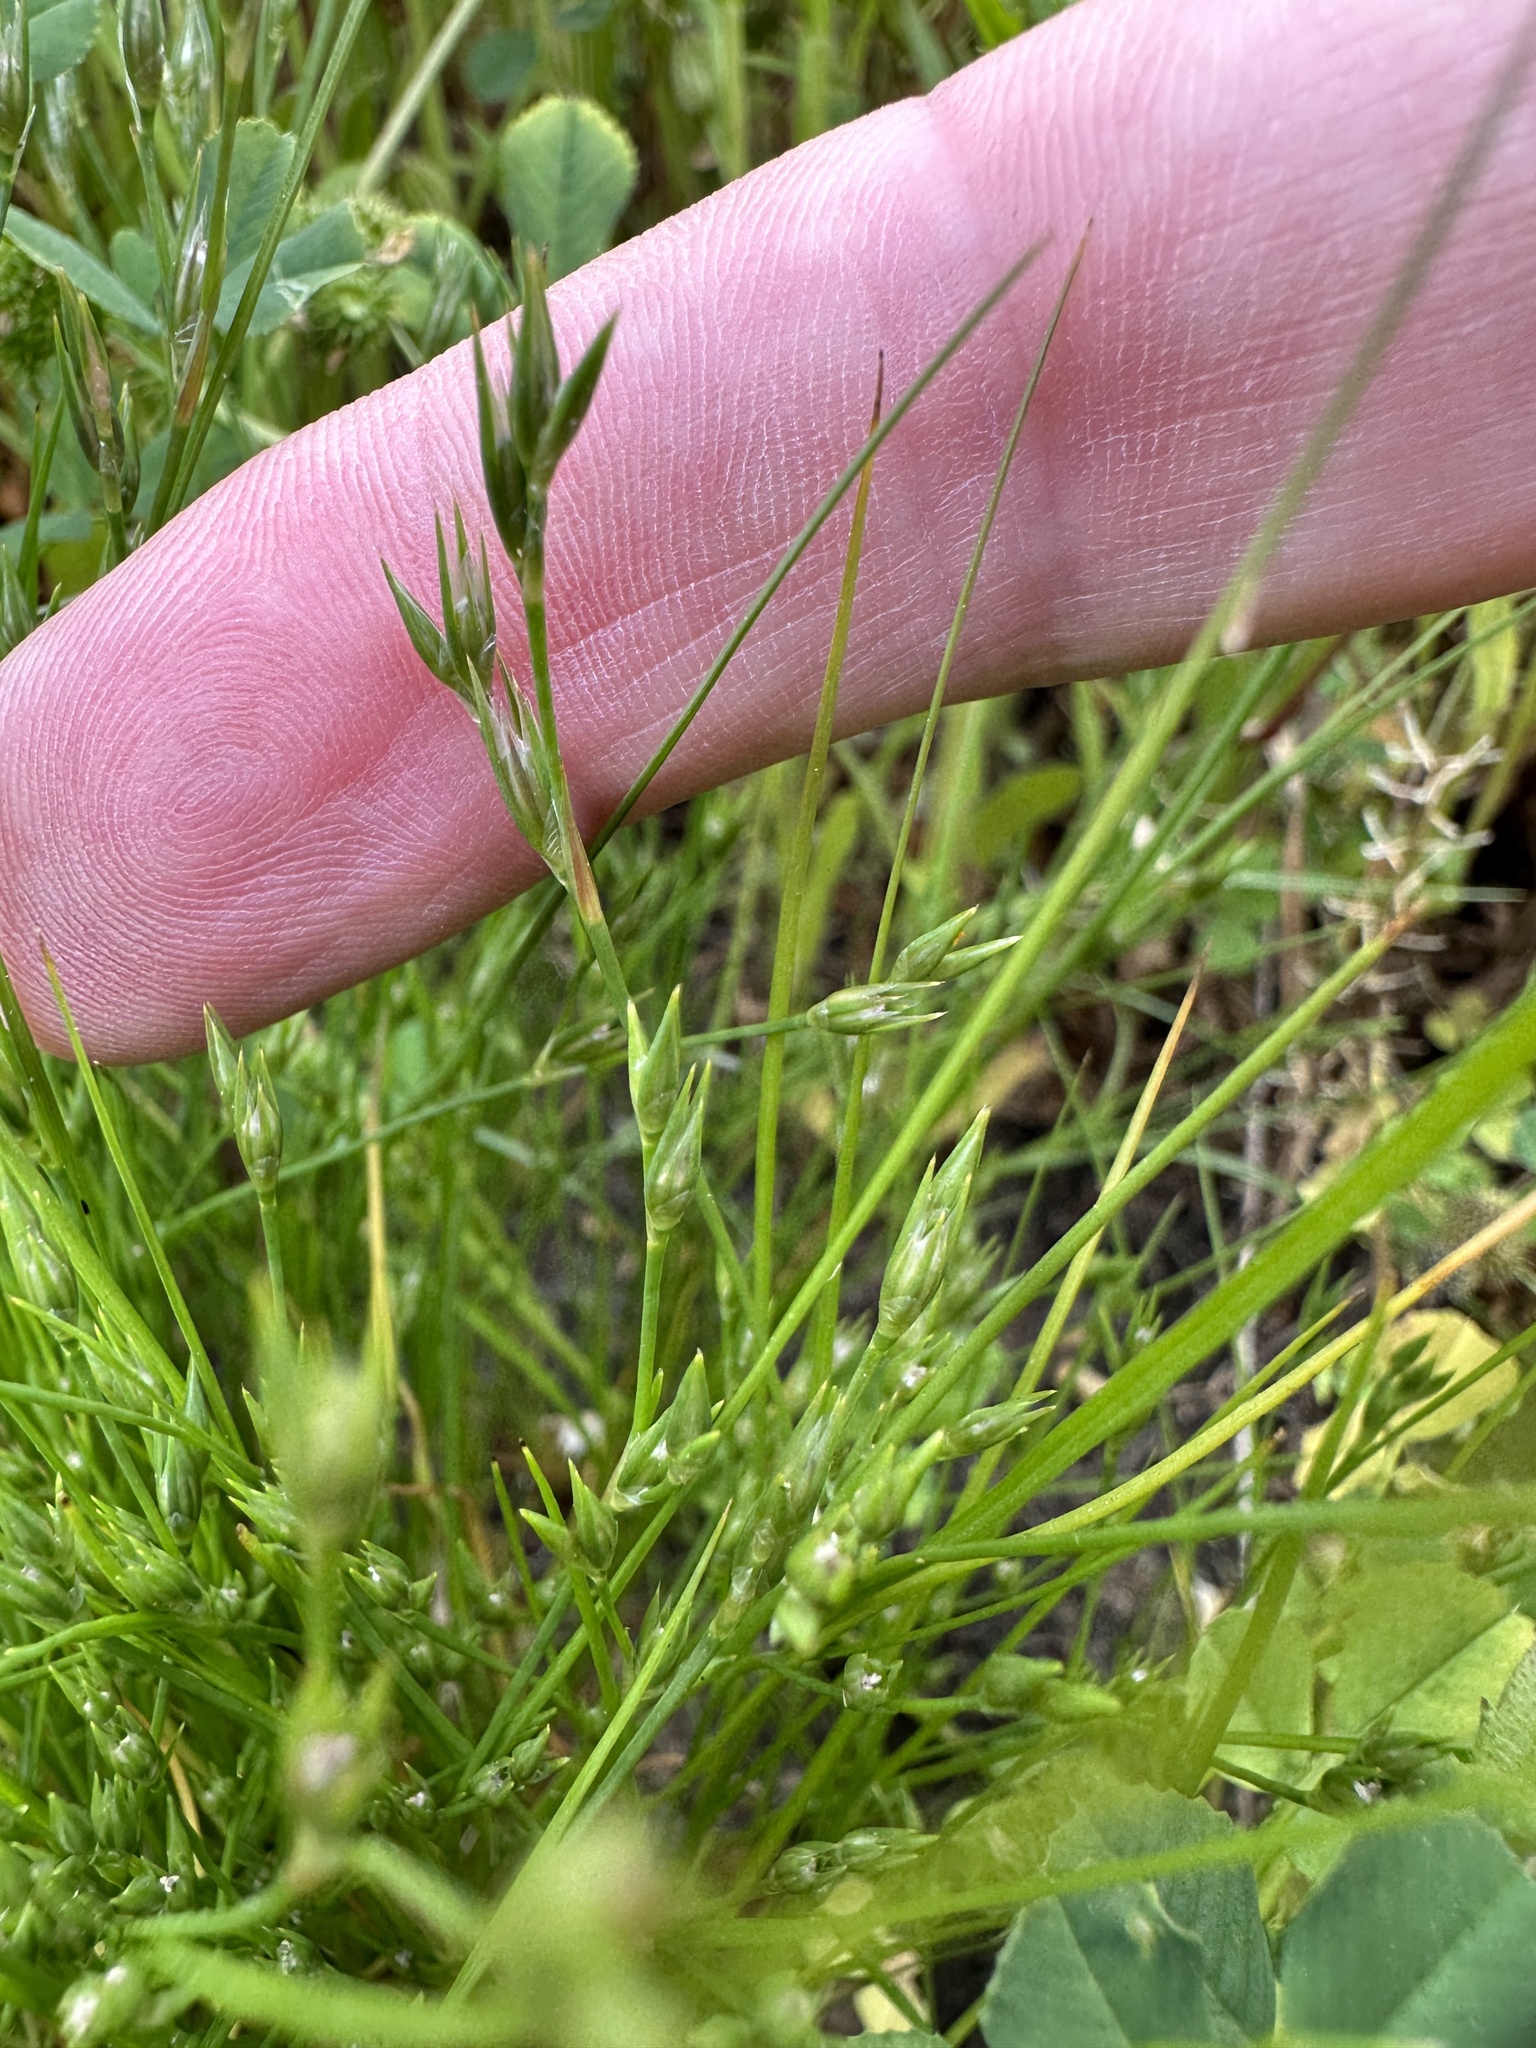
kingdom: Plantae
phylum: Tracheophyta
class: Liliopsida
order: Poales
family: Juncaceae
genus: Juncus
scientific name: Juncus bufonius
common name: Toad rush
